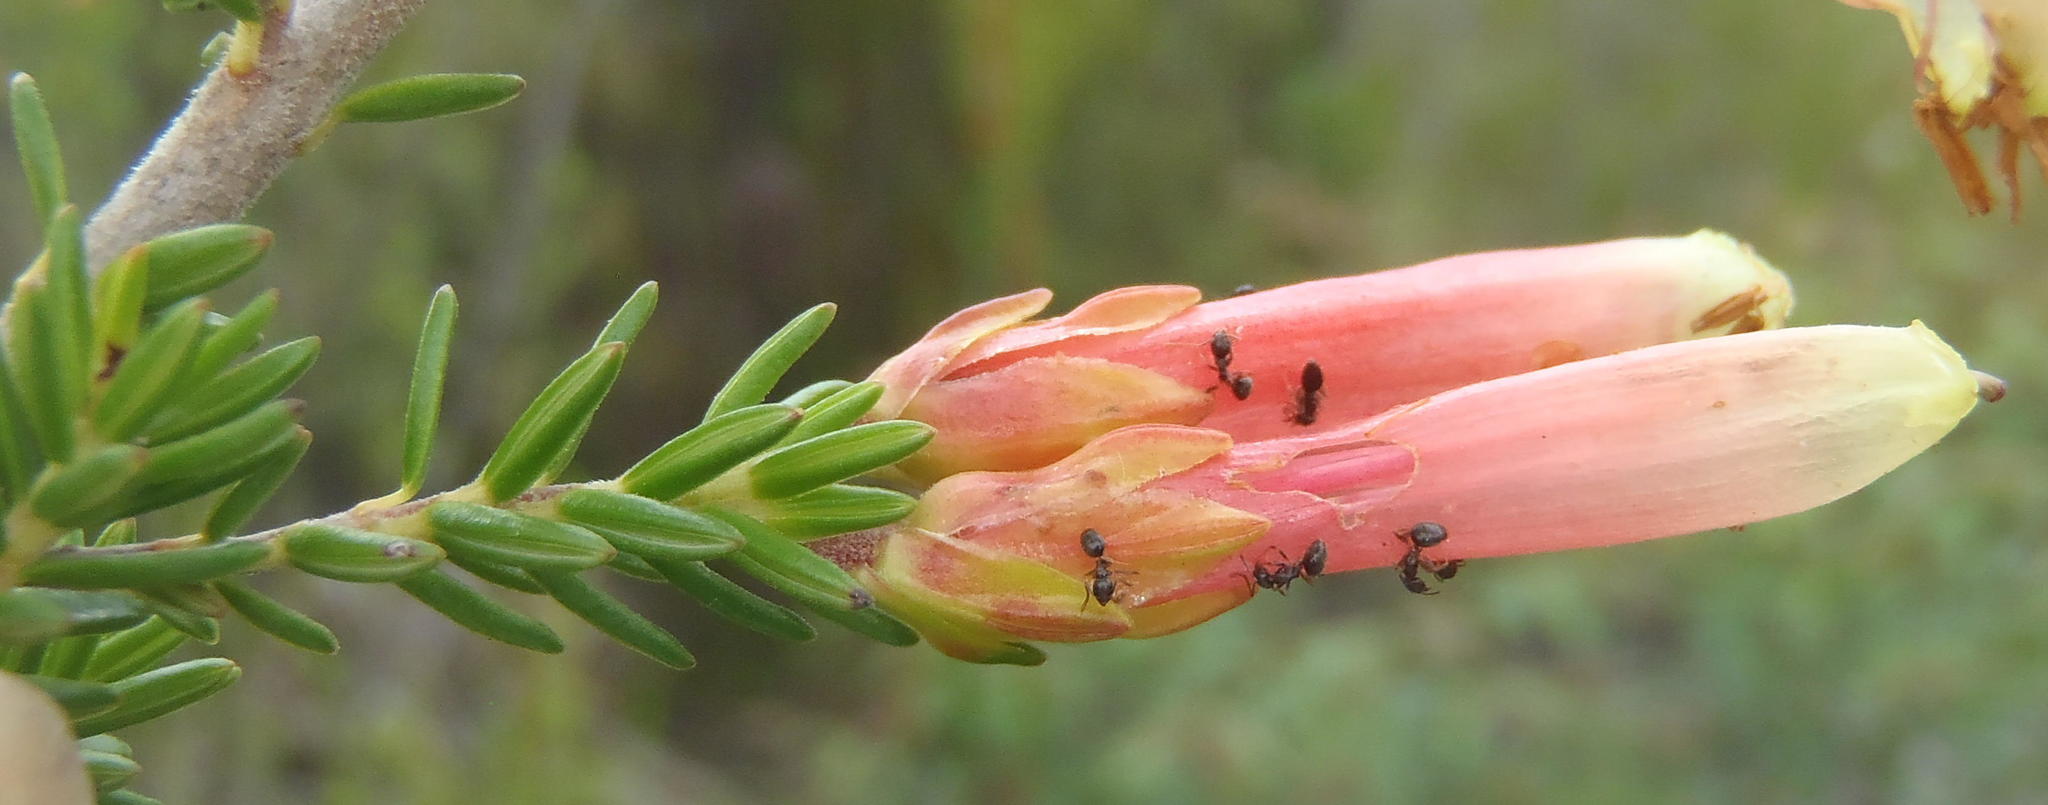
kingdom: Animalia
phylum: Arthropoda
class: Insecta
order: Hymenoptera
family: Formicidae
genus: Lepisiota
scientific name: Lepisiota capensis
